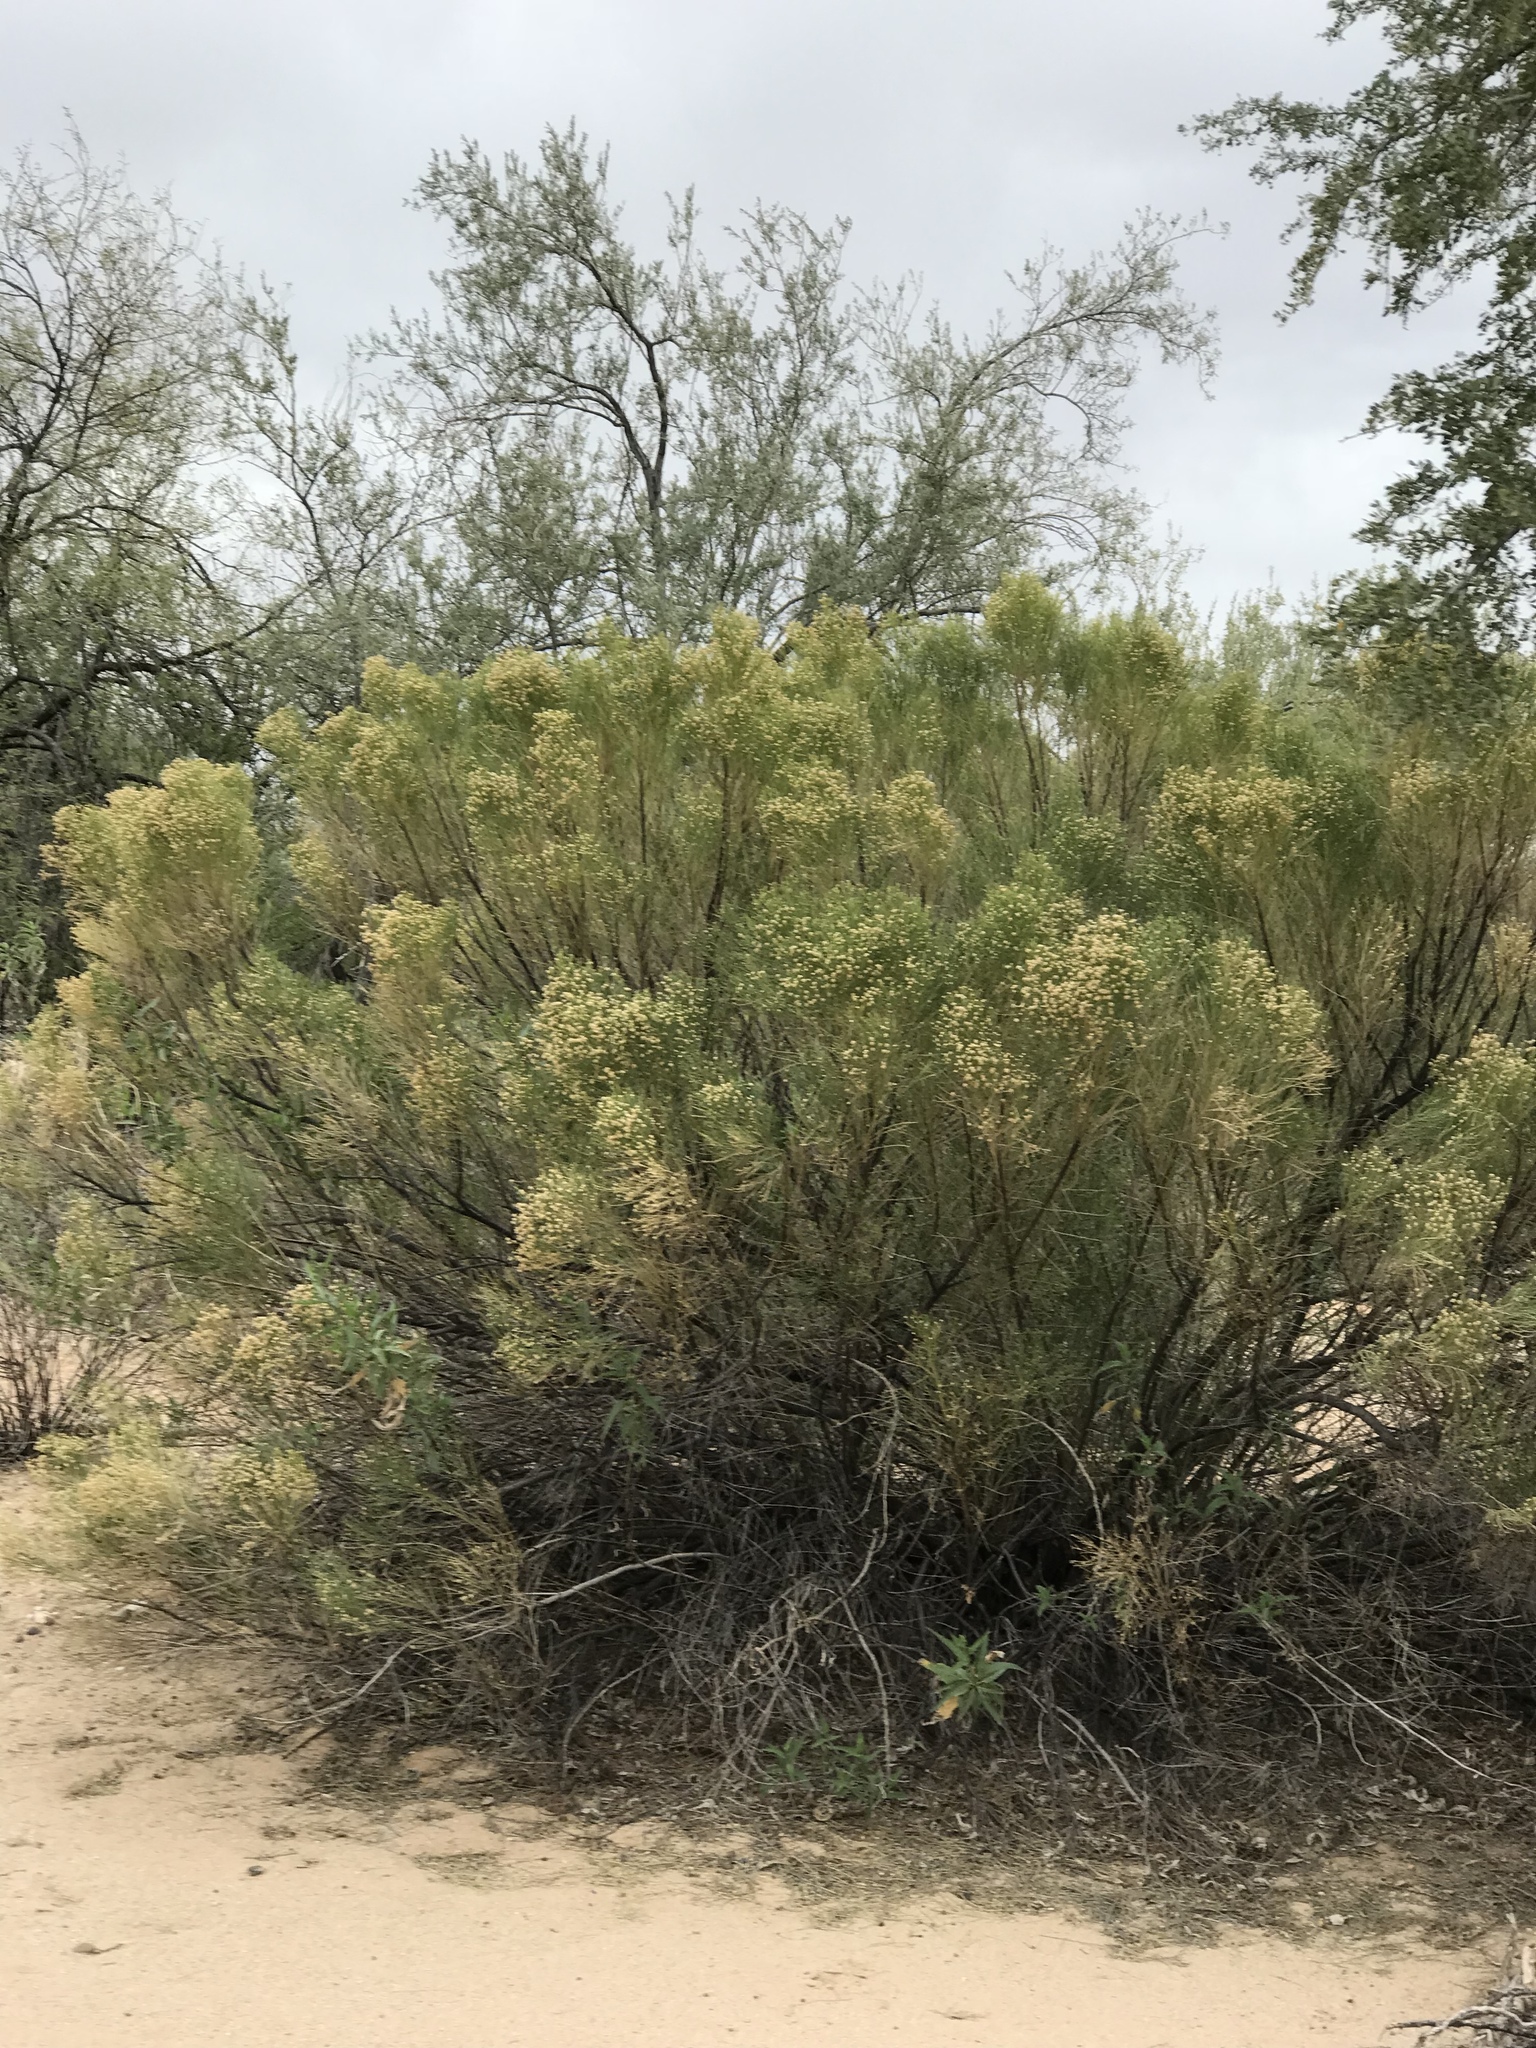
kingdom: Plantae
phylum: Tracheophyta
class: Magnoliopsida
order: Asterales
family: Asteraceae
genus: Baccharis
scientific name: Baccharis sarothroides
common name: Desert-broom
